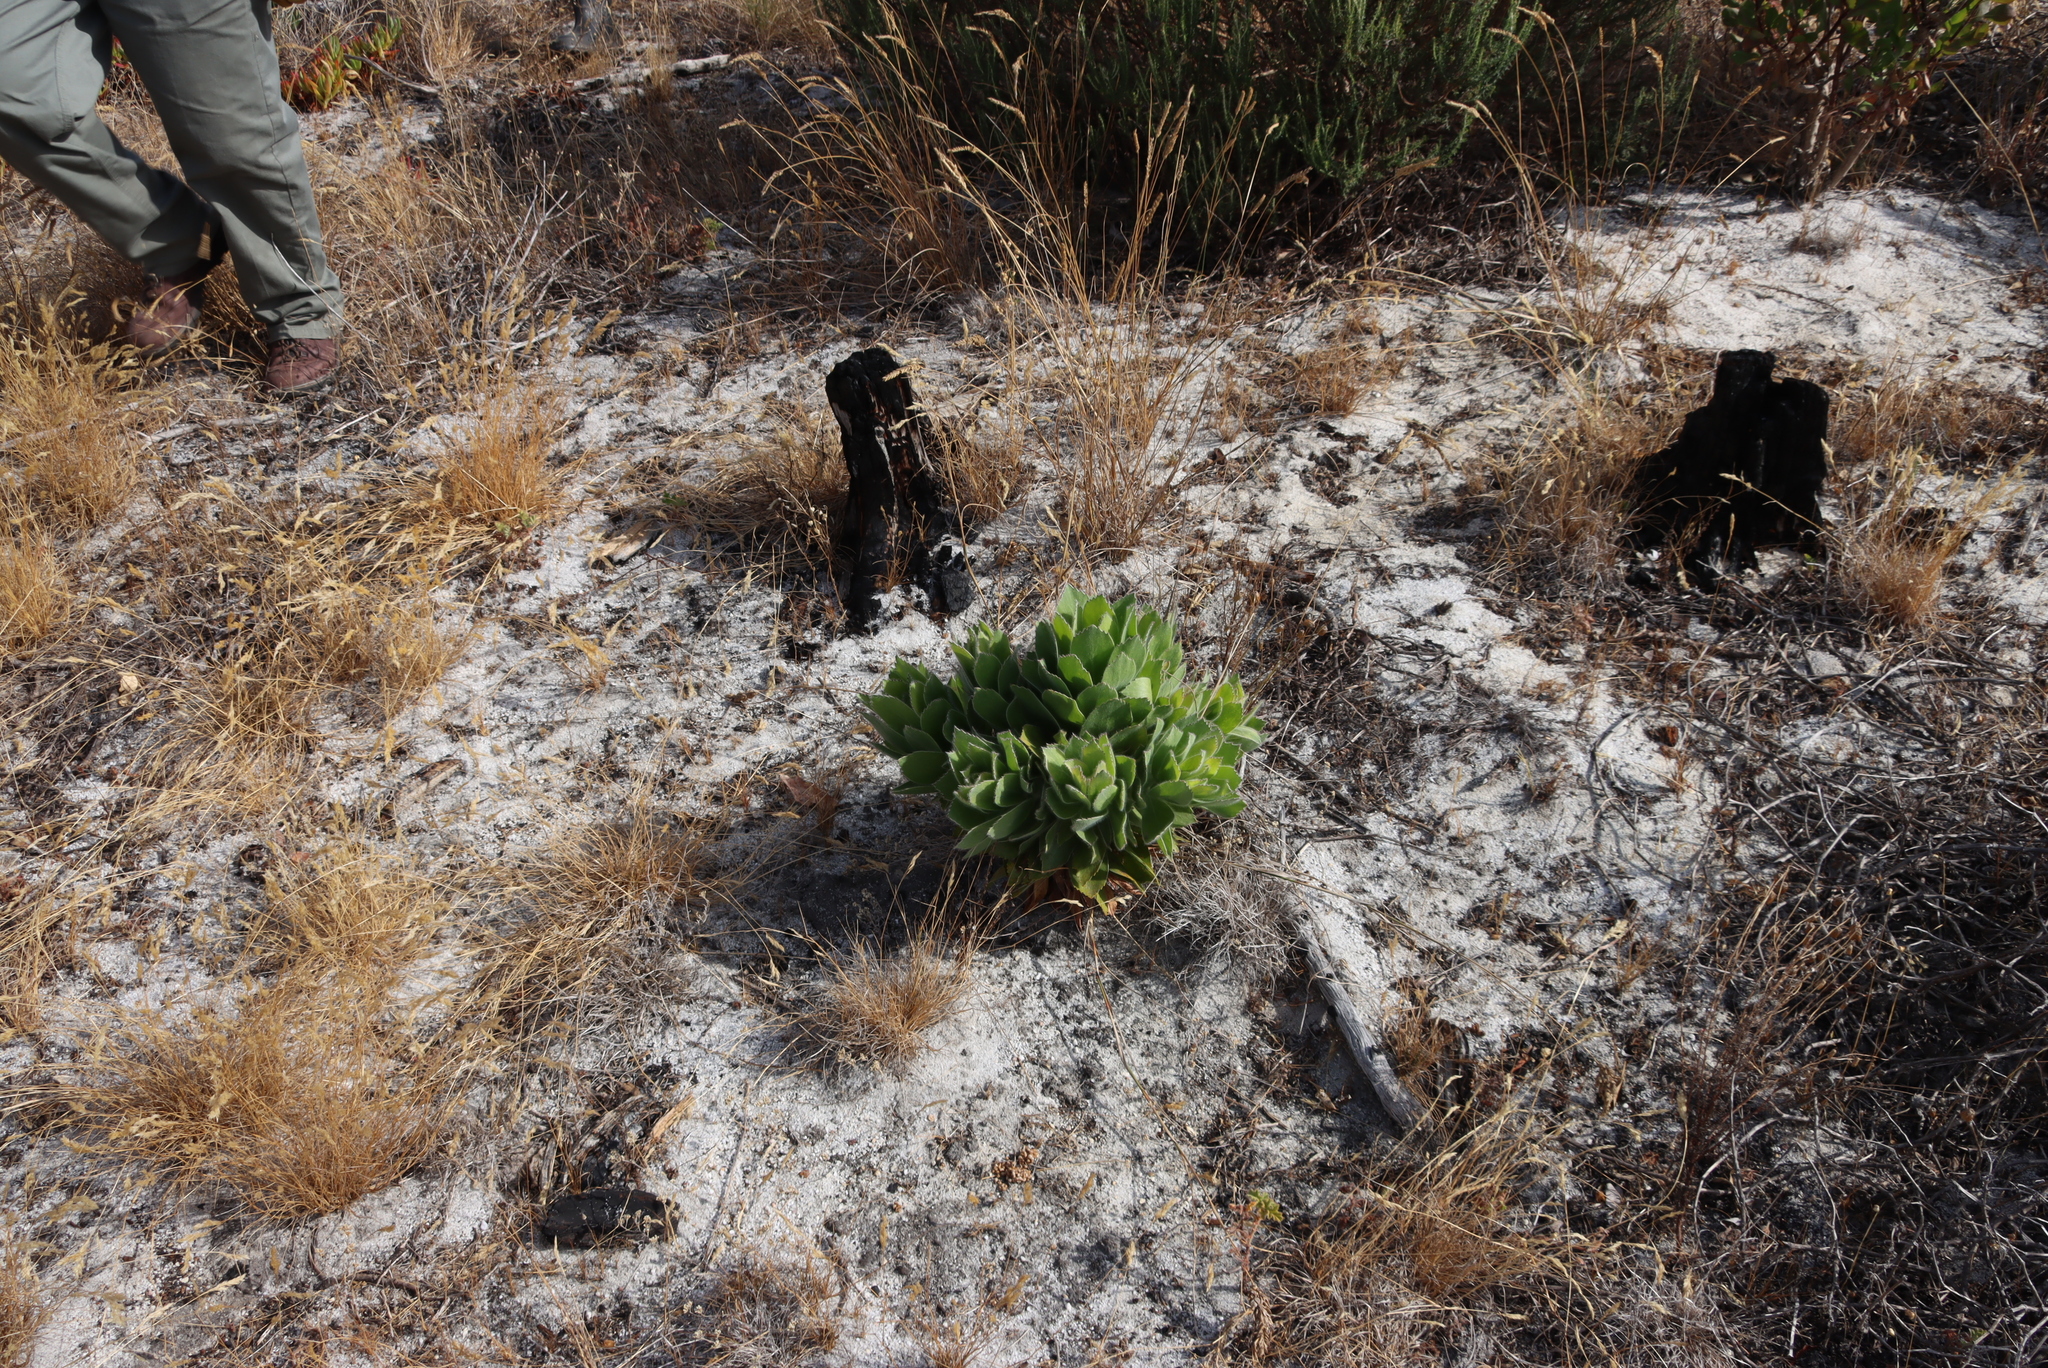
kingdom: Plantae
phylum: Tracheophyta
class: Magnoliopsida
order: Proteales
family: Proteaceae
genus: Leucospermum
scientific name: Leucospermum conocarpodendron
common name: Tree pincushion
